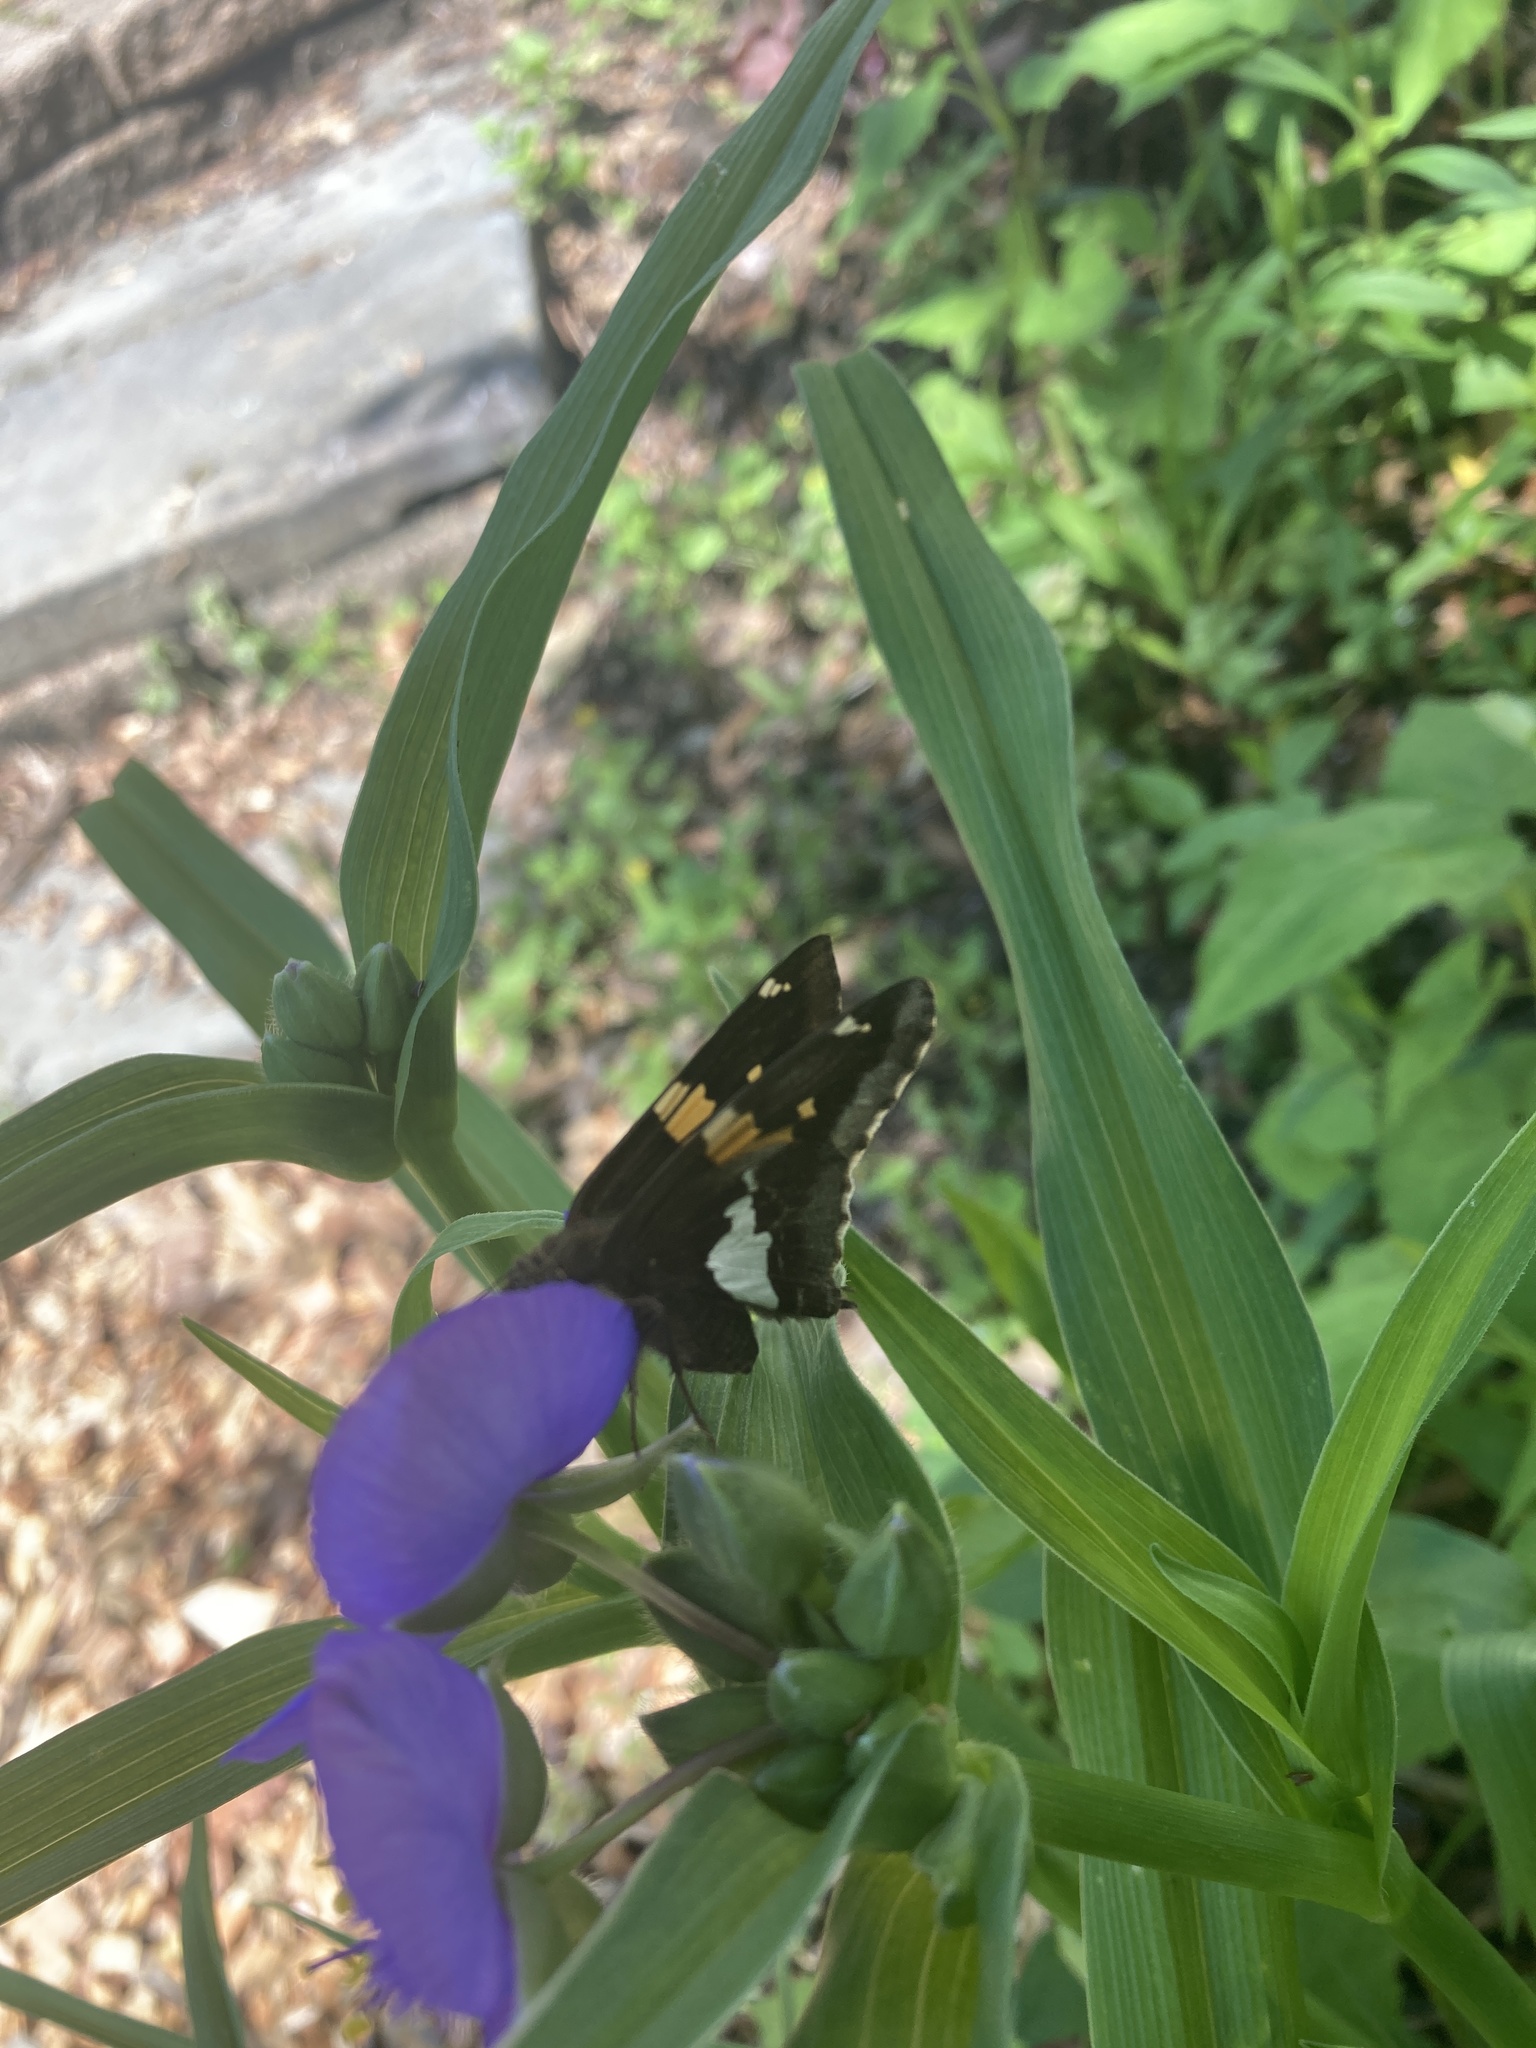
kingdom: Animalia
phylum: Arthropoda
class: Insecta
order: Lepidoptera
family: Hesperiidae
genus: Epargyreus
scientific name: Epargyreus clarus
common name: Silver-spotted skipper
